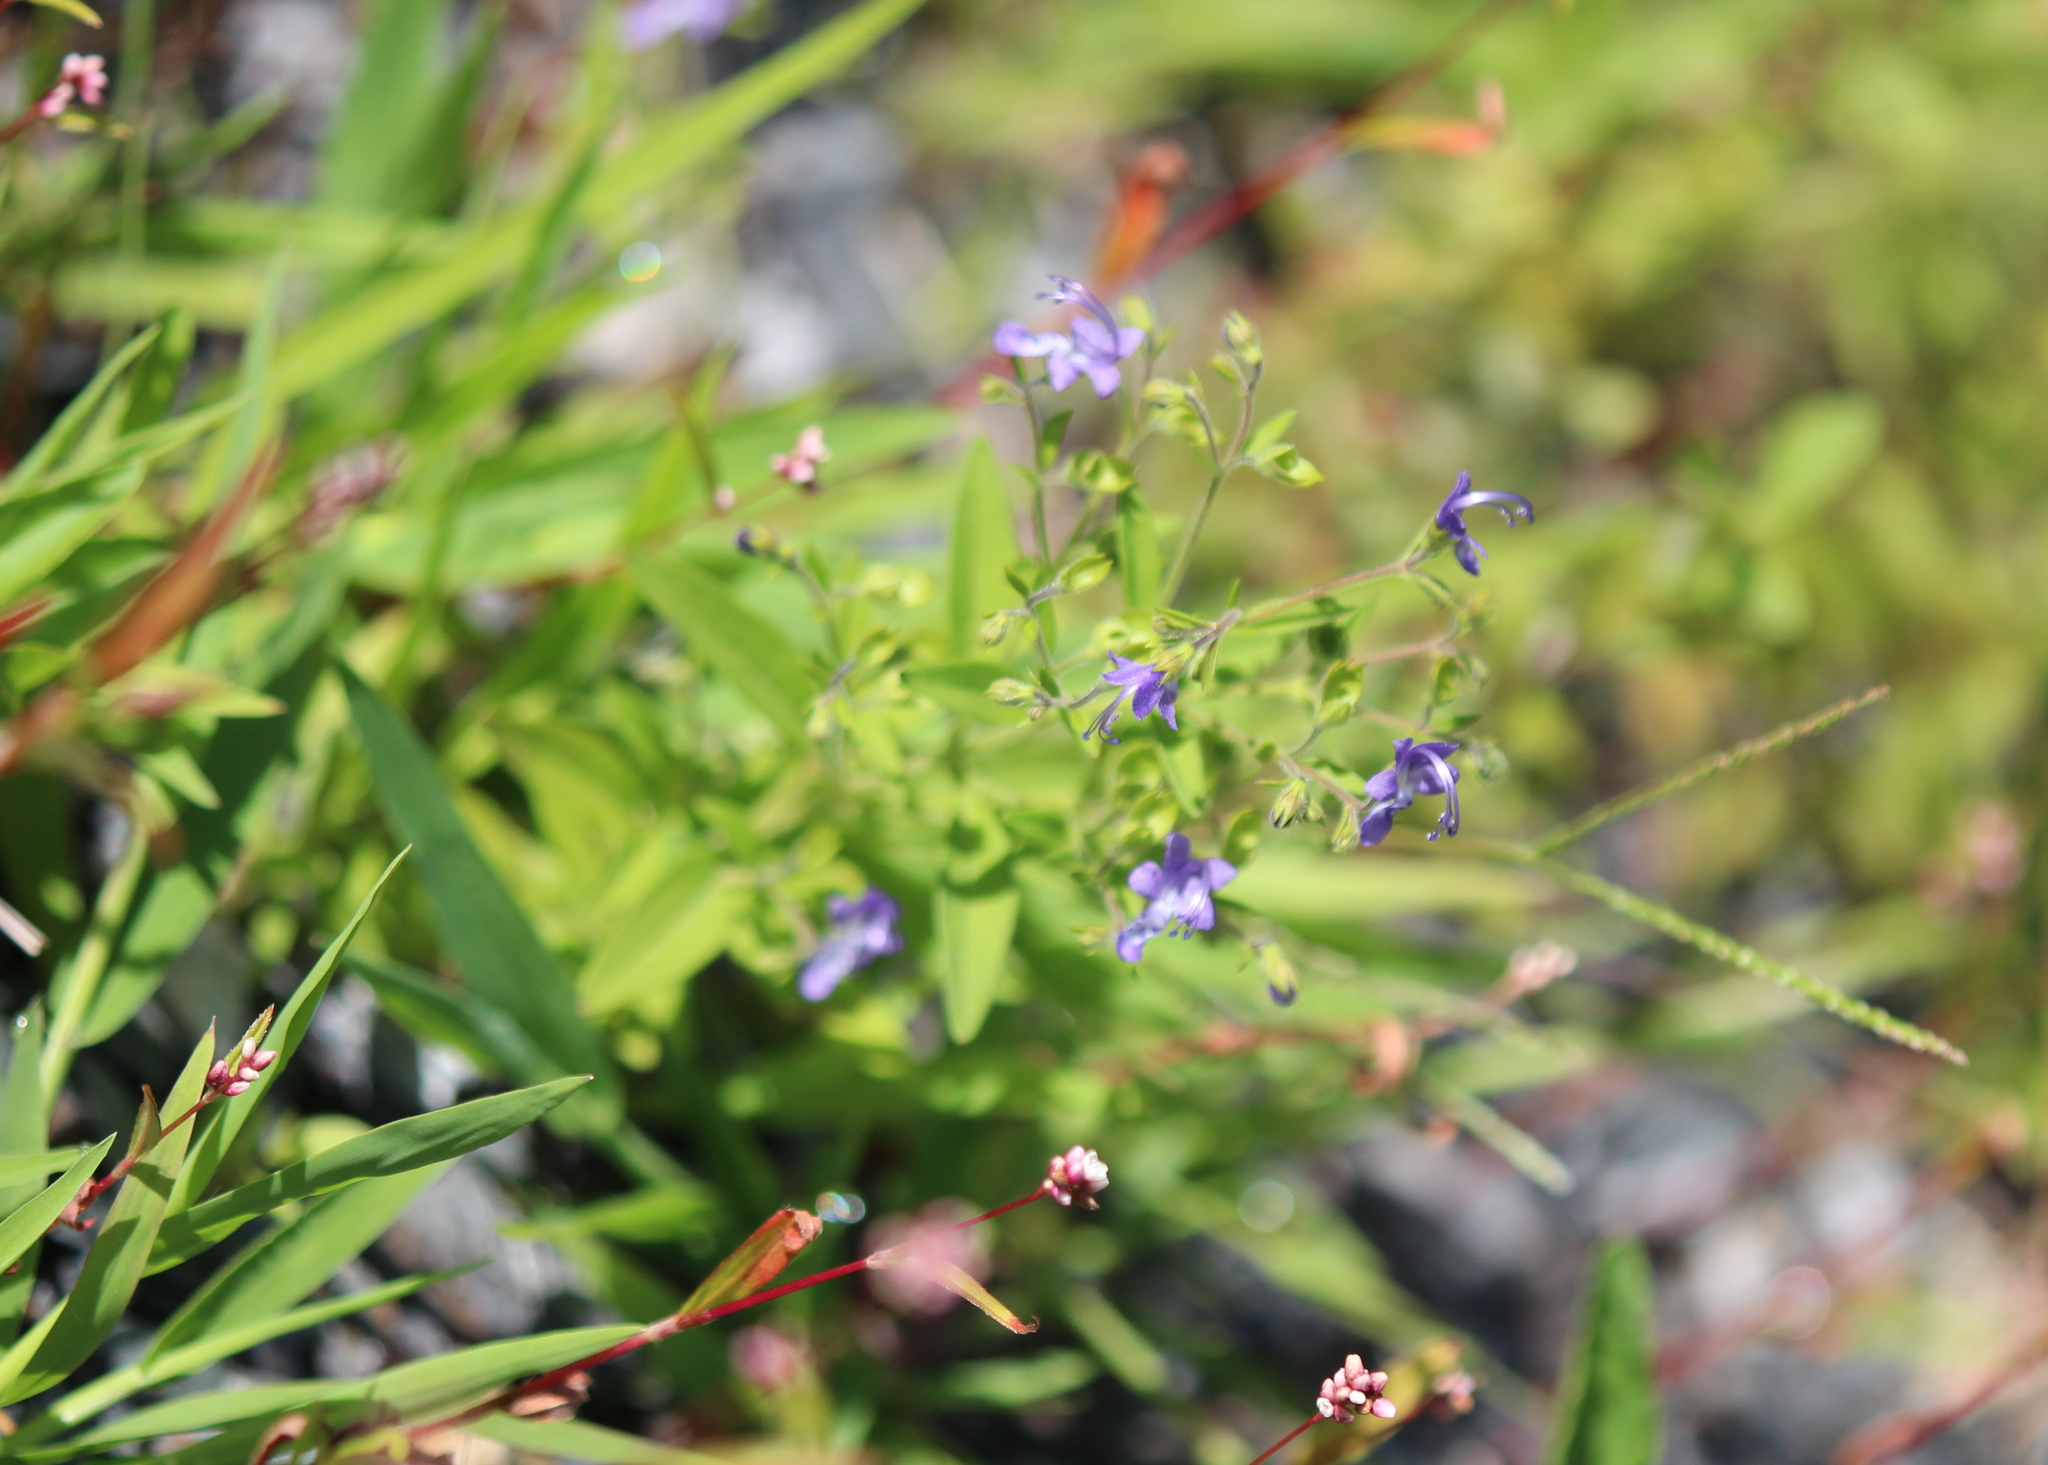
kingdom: Plantae
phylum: Tracheophyta
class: Magnoliopsida
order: Lamiales
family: Lamiaceae
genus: Trichostema
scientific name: Trichostema dichotomum
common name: Bastard pennyroyal
